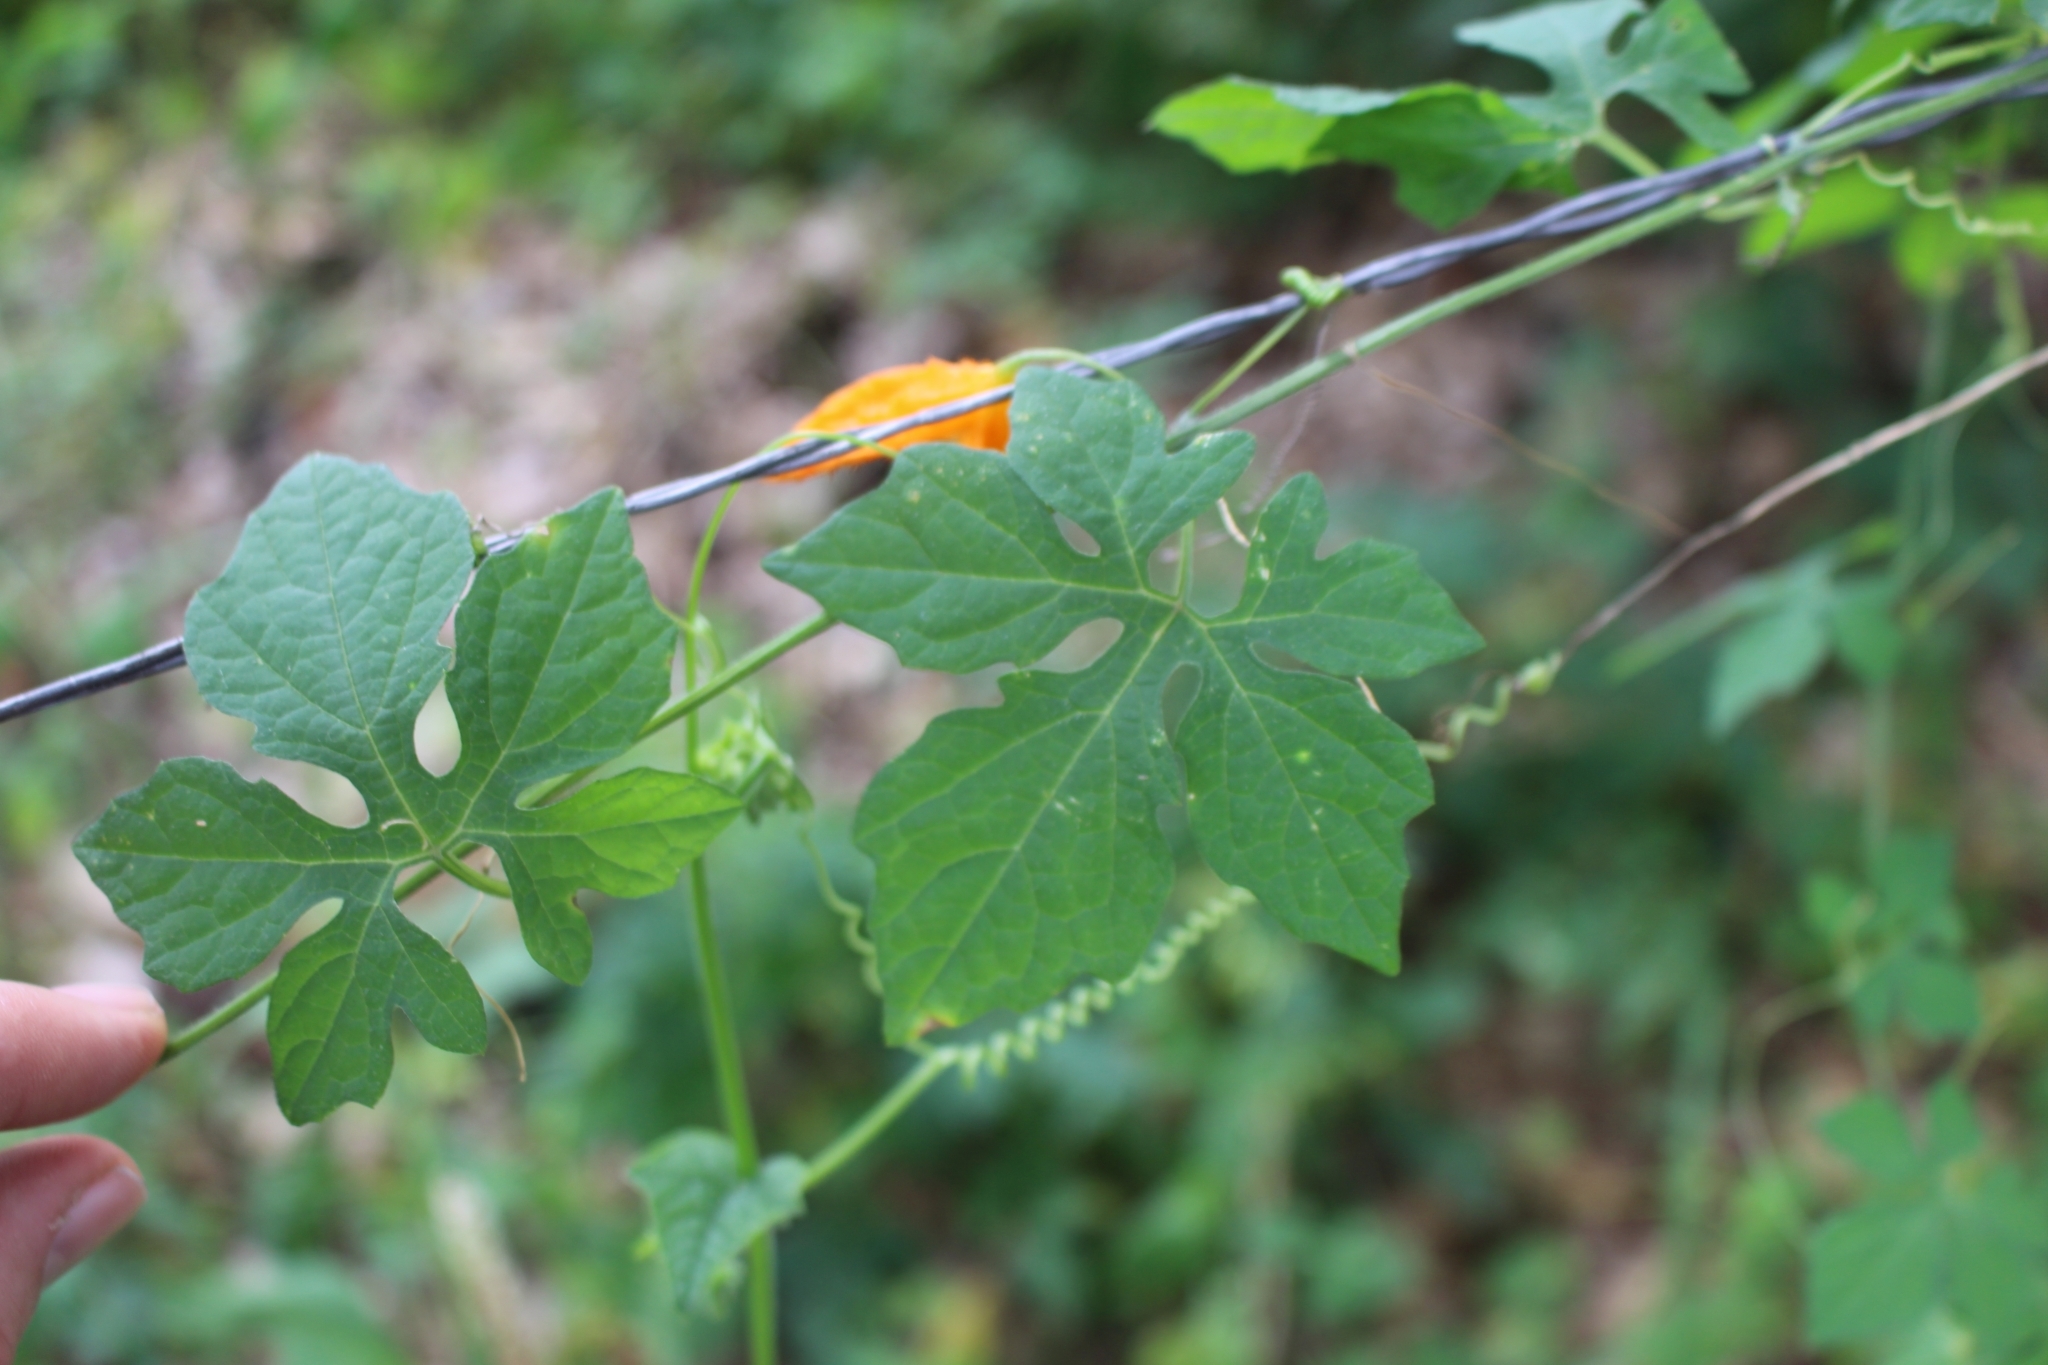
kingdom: Plantae
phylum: Tracheophyta
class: Magnoliopsida
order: Cucurbitales
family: Cucurbitaceae
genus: Momordica
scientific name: Momordica charantia
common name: Balsampear
